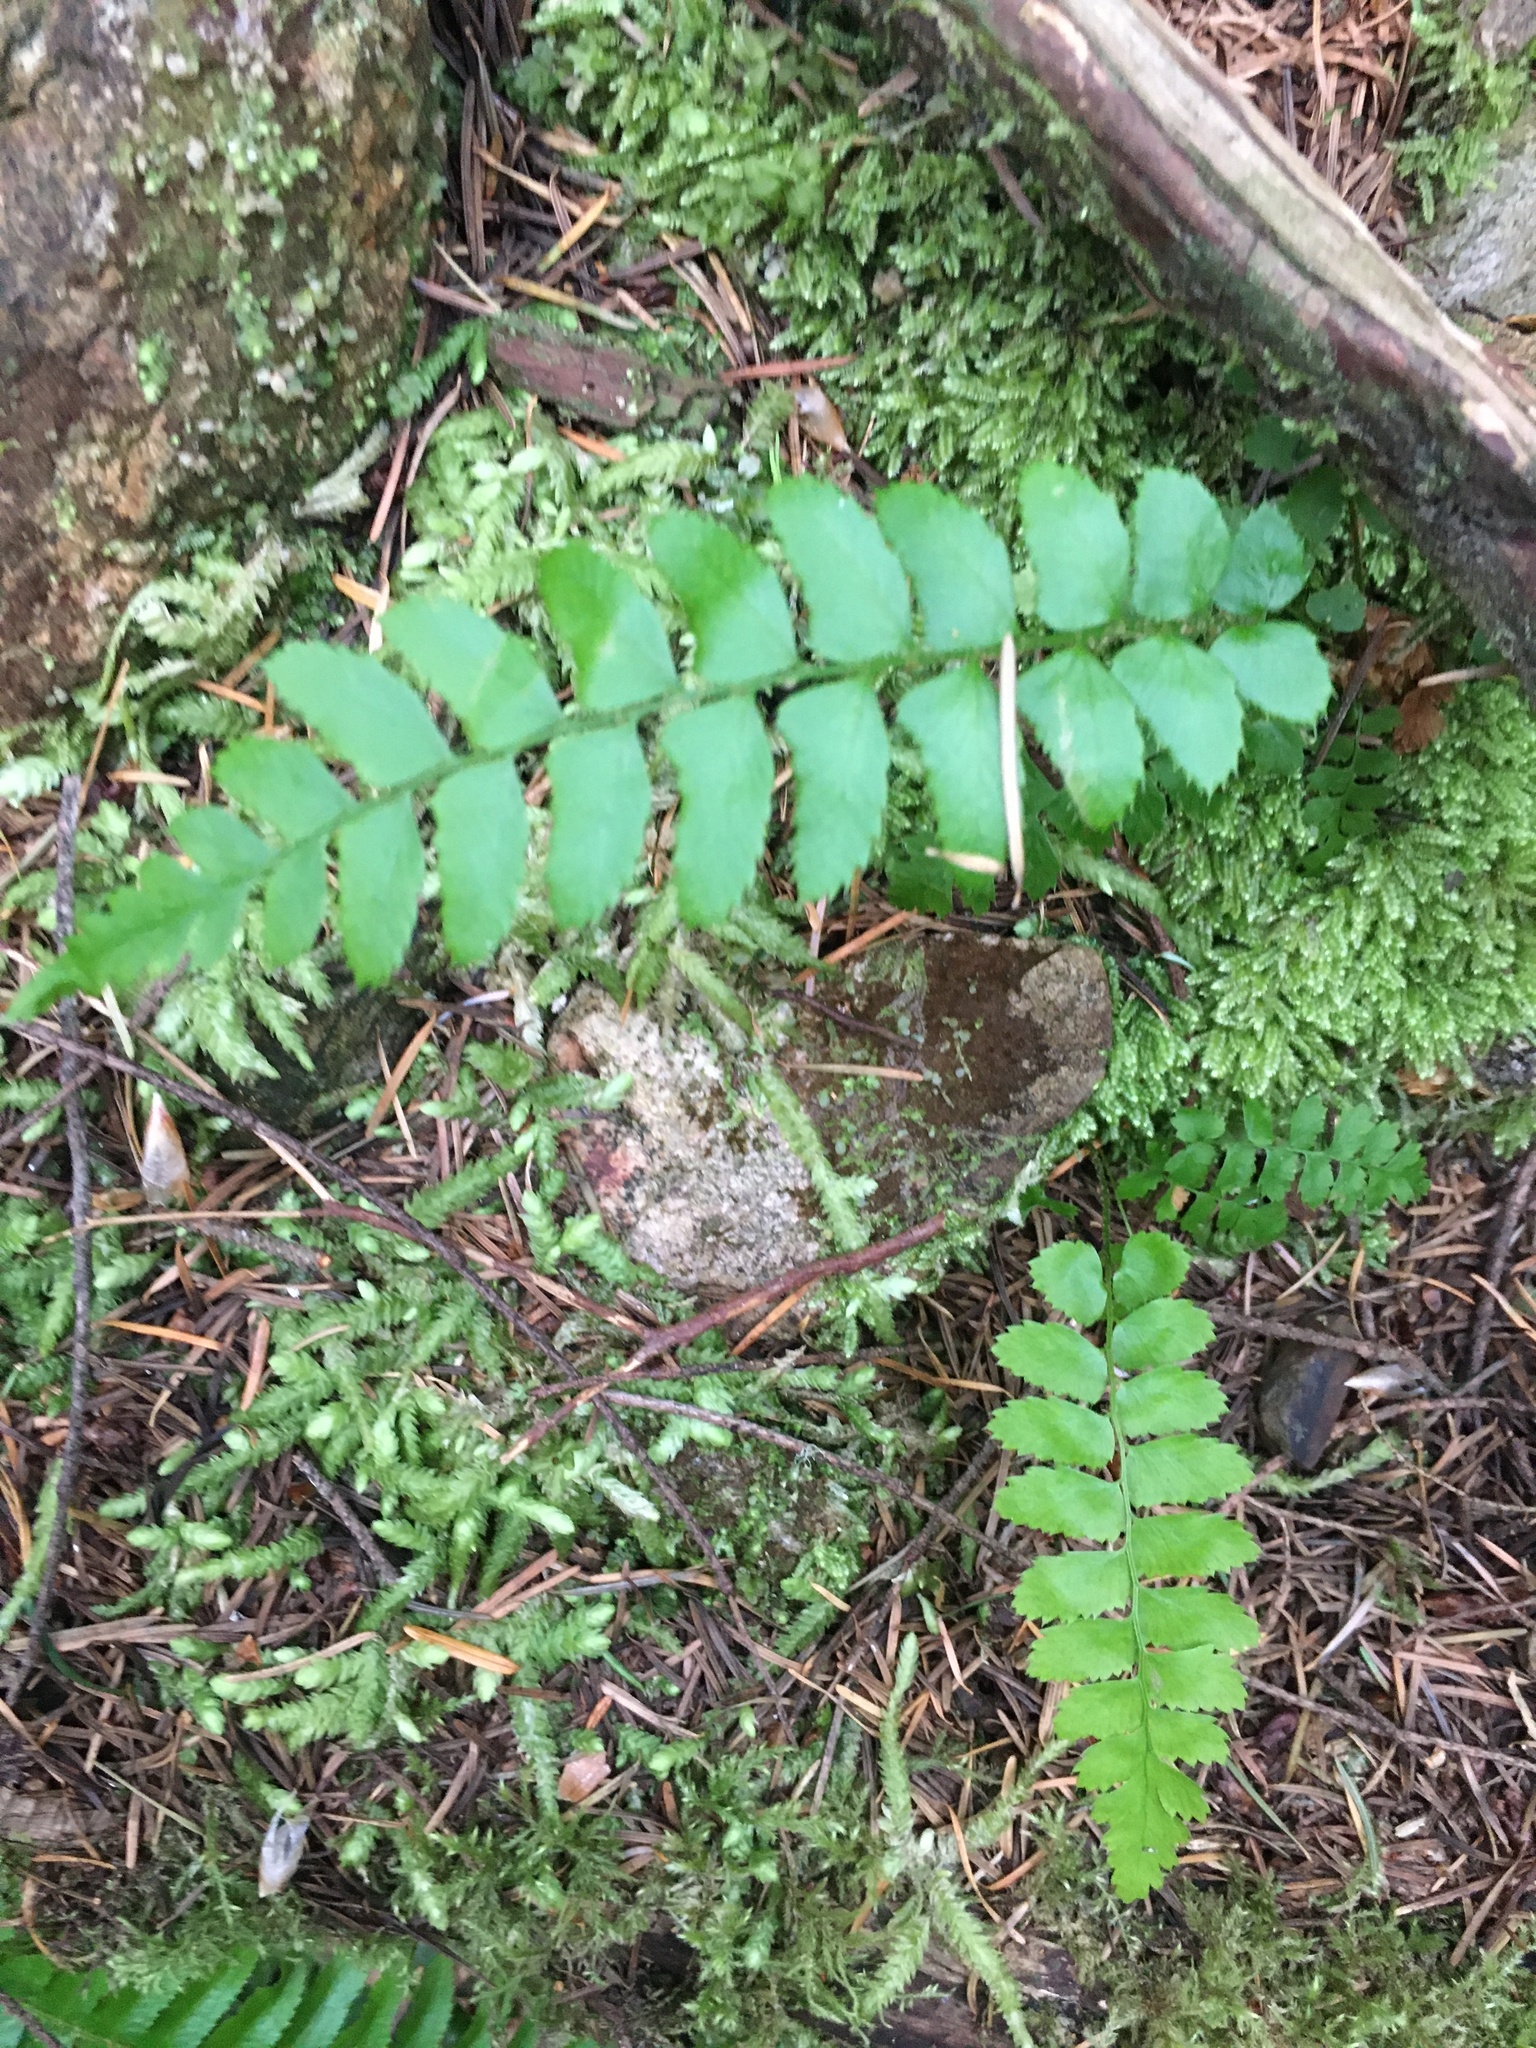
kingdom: Plantae
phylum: Tracheophyta
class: Polypodiopsida
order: Polypodiales
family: Dryopteridaceae
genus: Polystichum
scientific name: Polystichum munitum
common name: Western sword-fern
